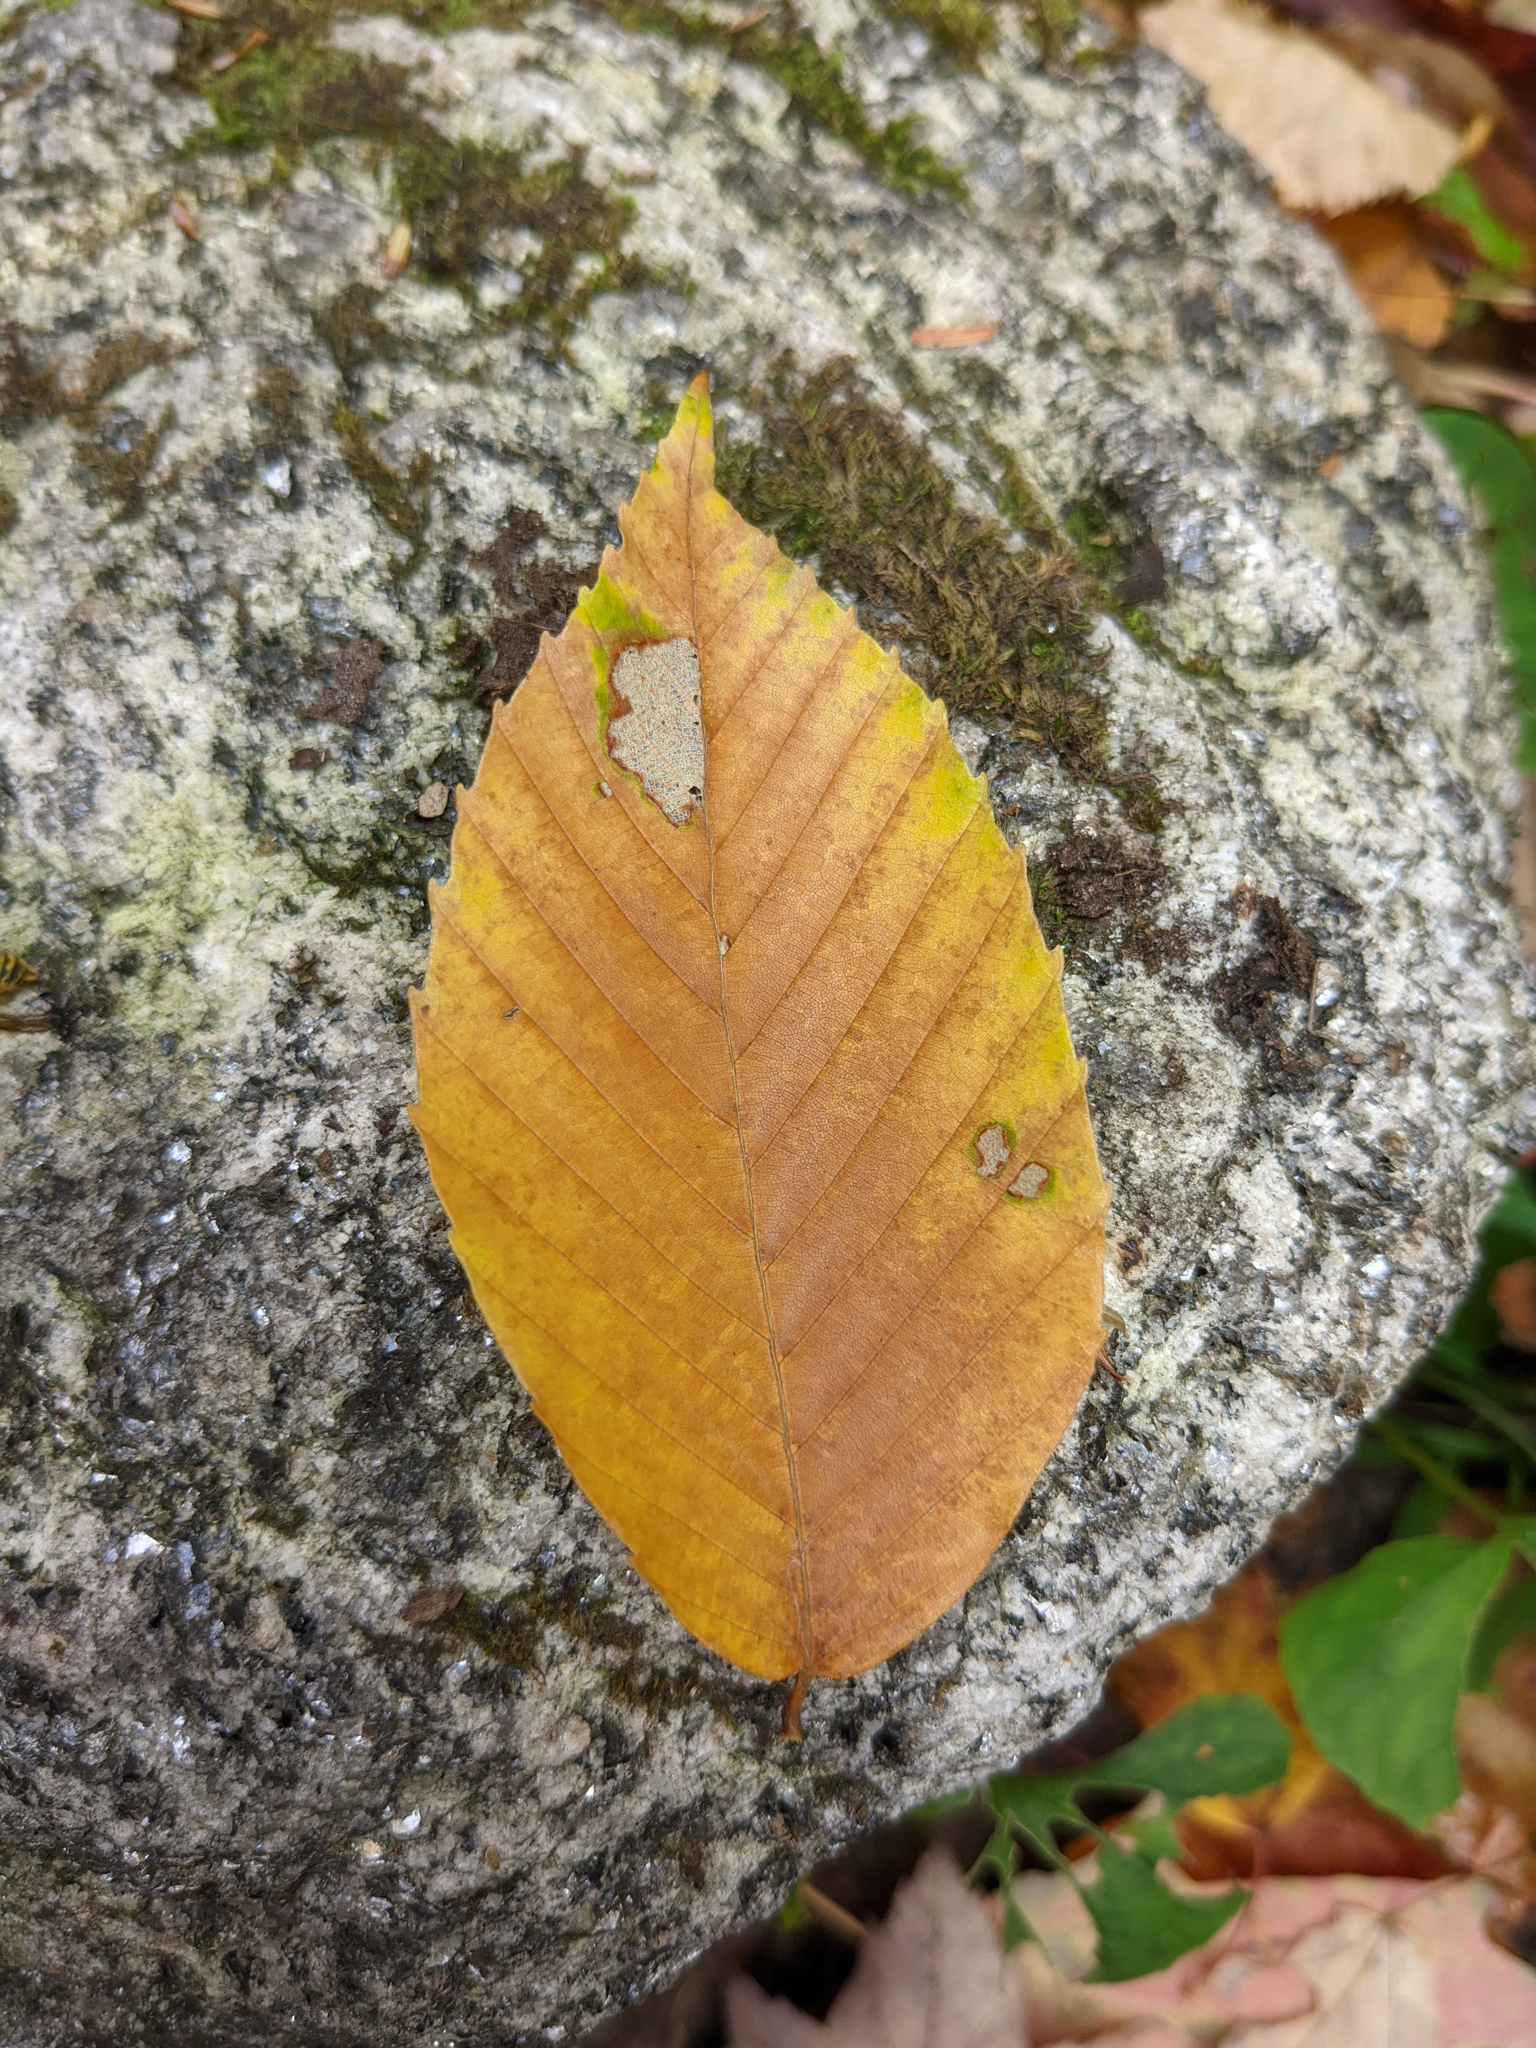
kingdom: Plantae
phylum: Tracheophyta
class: Magnoliopsida
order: Fagales
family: Fagaceae
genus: Fagus
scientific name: Fagus grandifolia
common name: American beech
